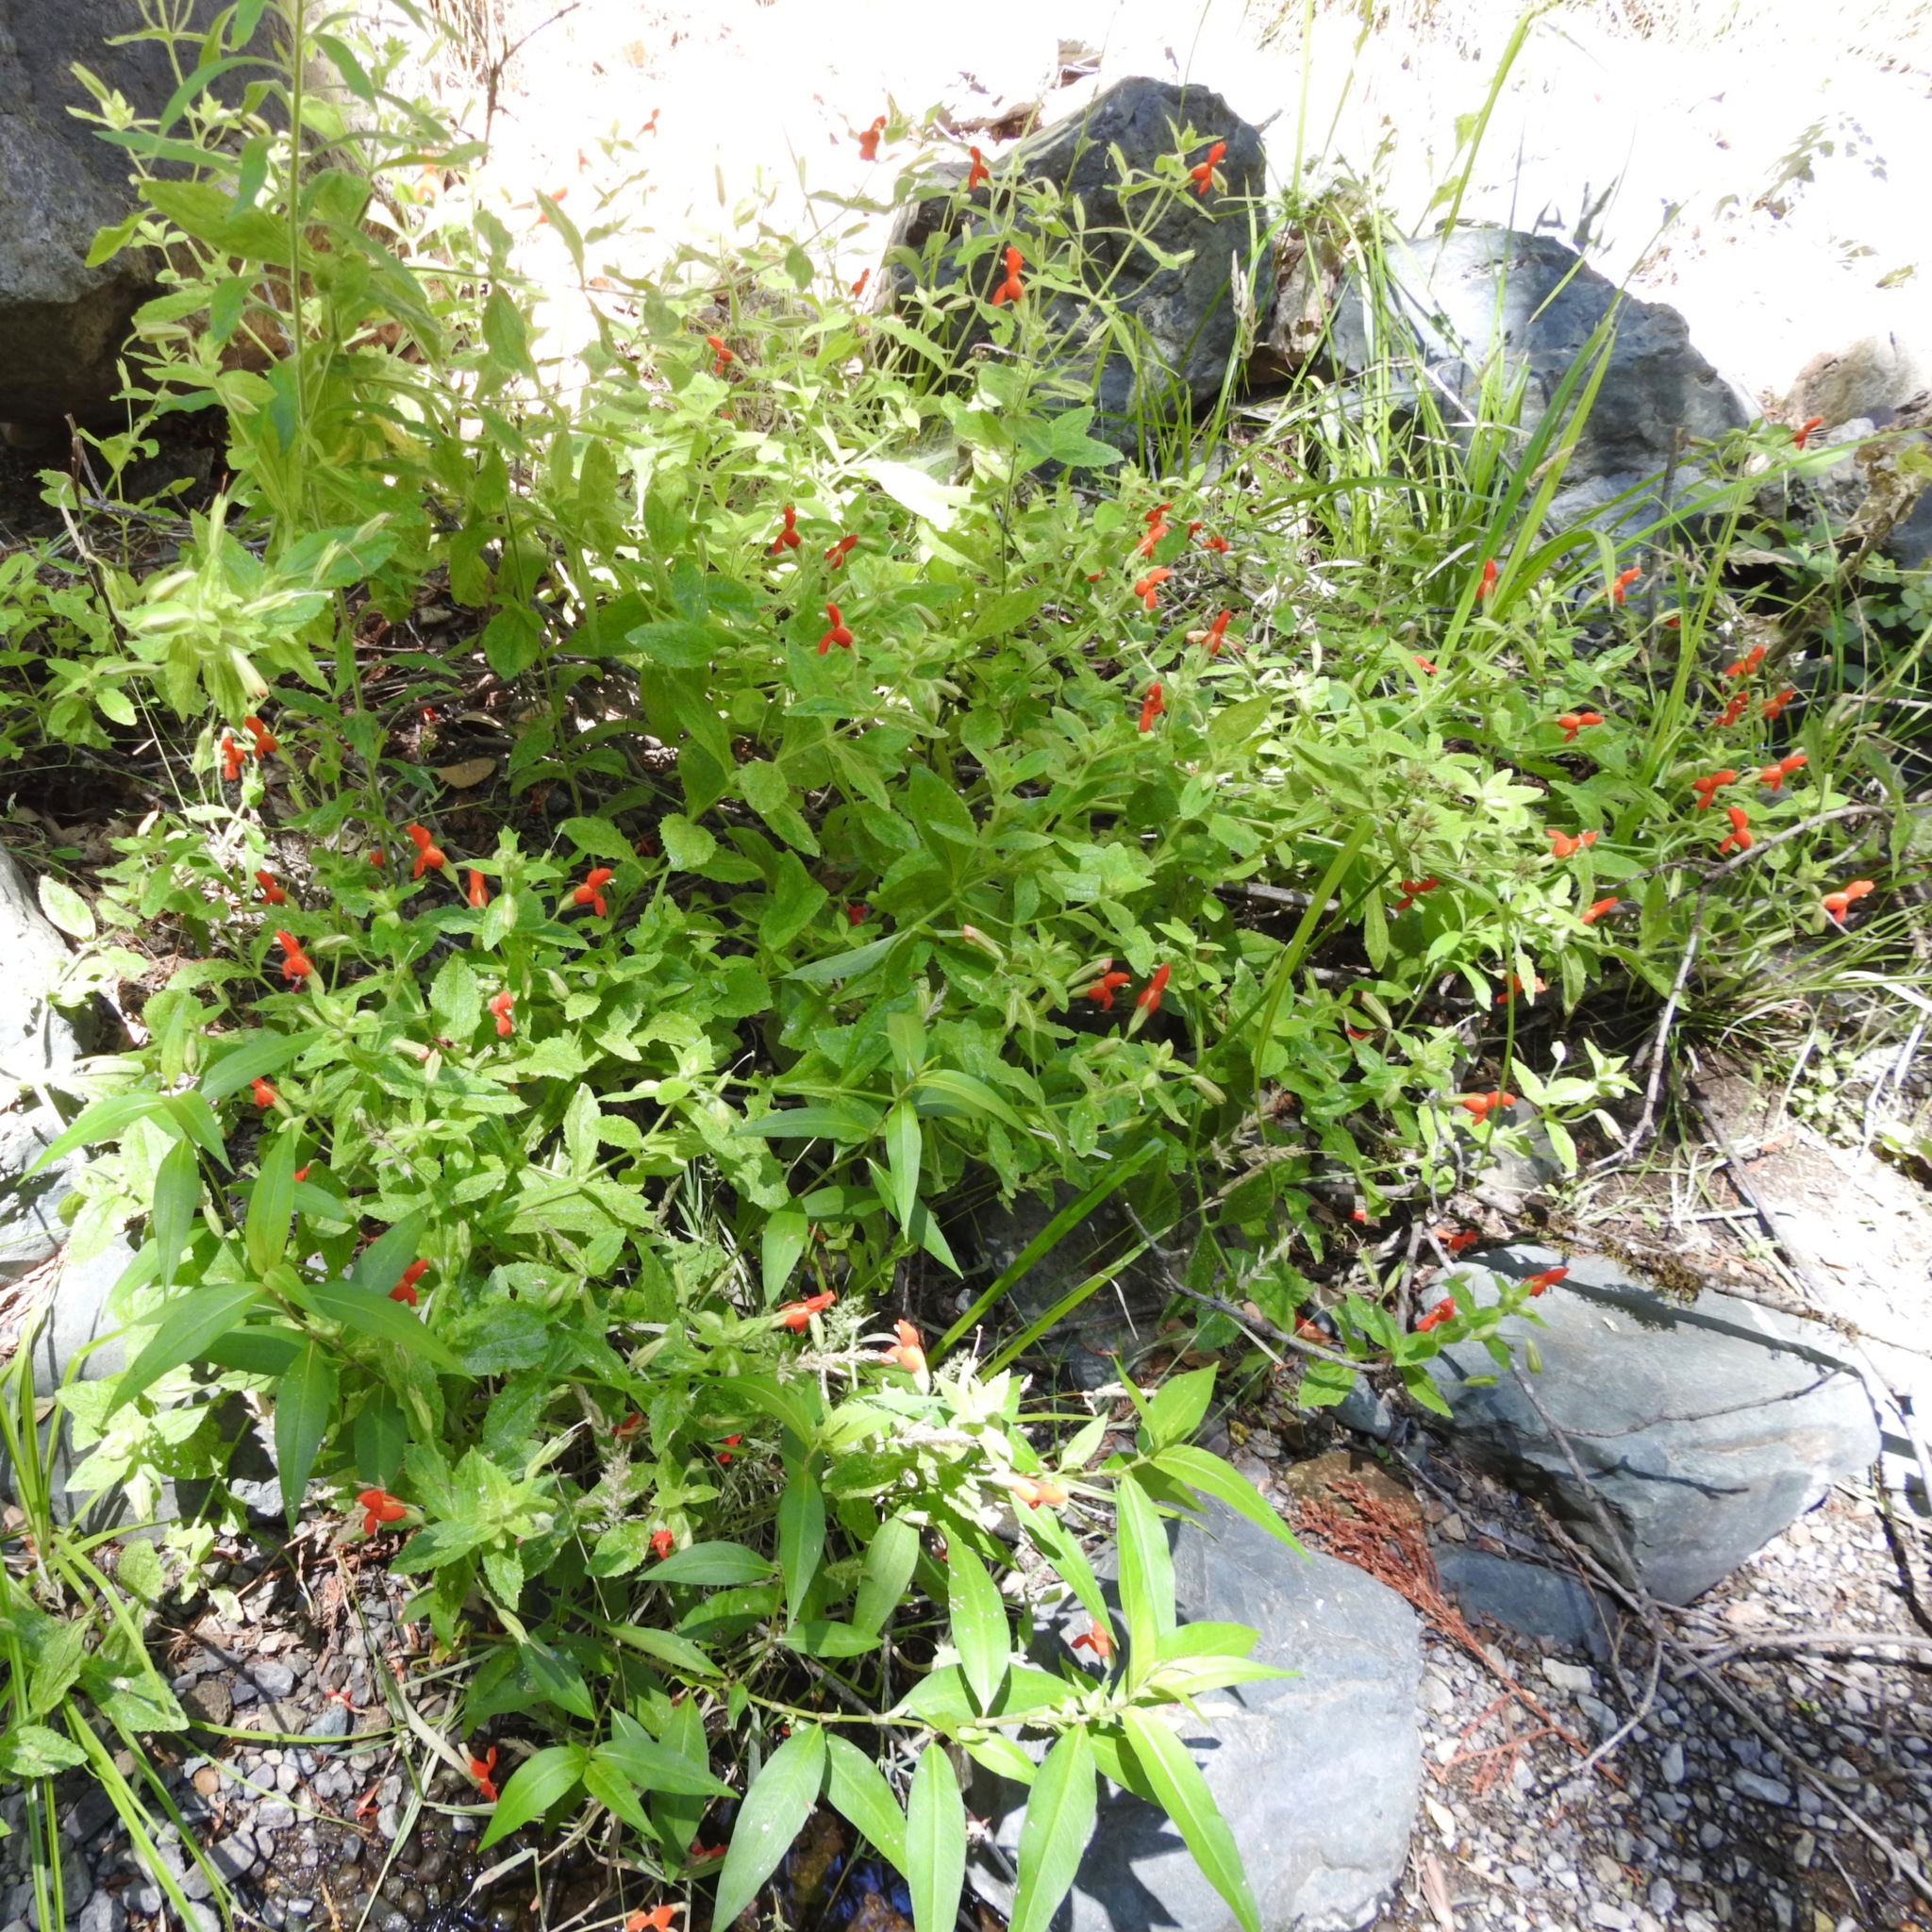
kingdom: Plantae
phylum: Tracheophyta
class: Magnoliopsida
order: Lamiales
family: Phrymaceae
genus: Erythranthe
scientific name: Erythranthe cardinalis
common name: Scarlet monkey-flower
